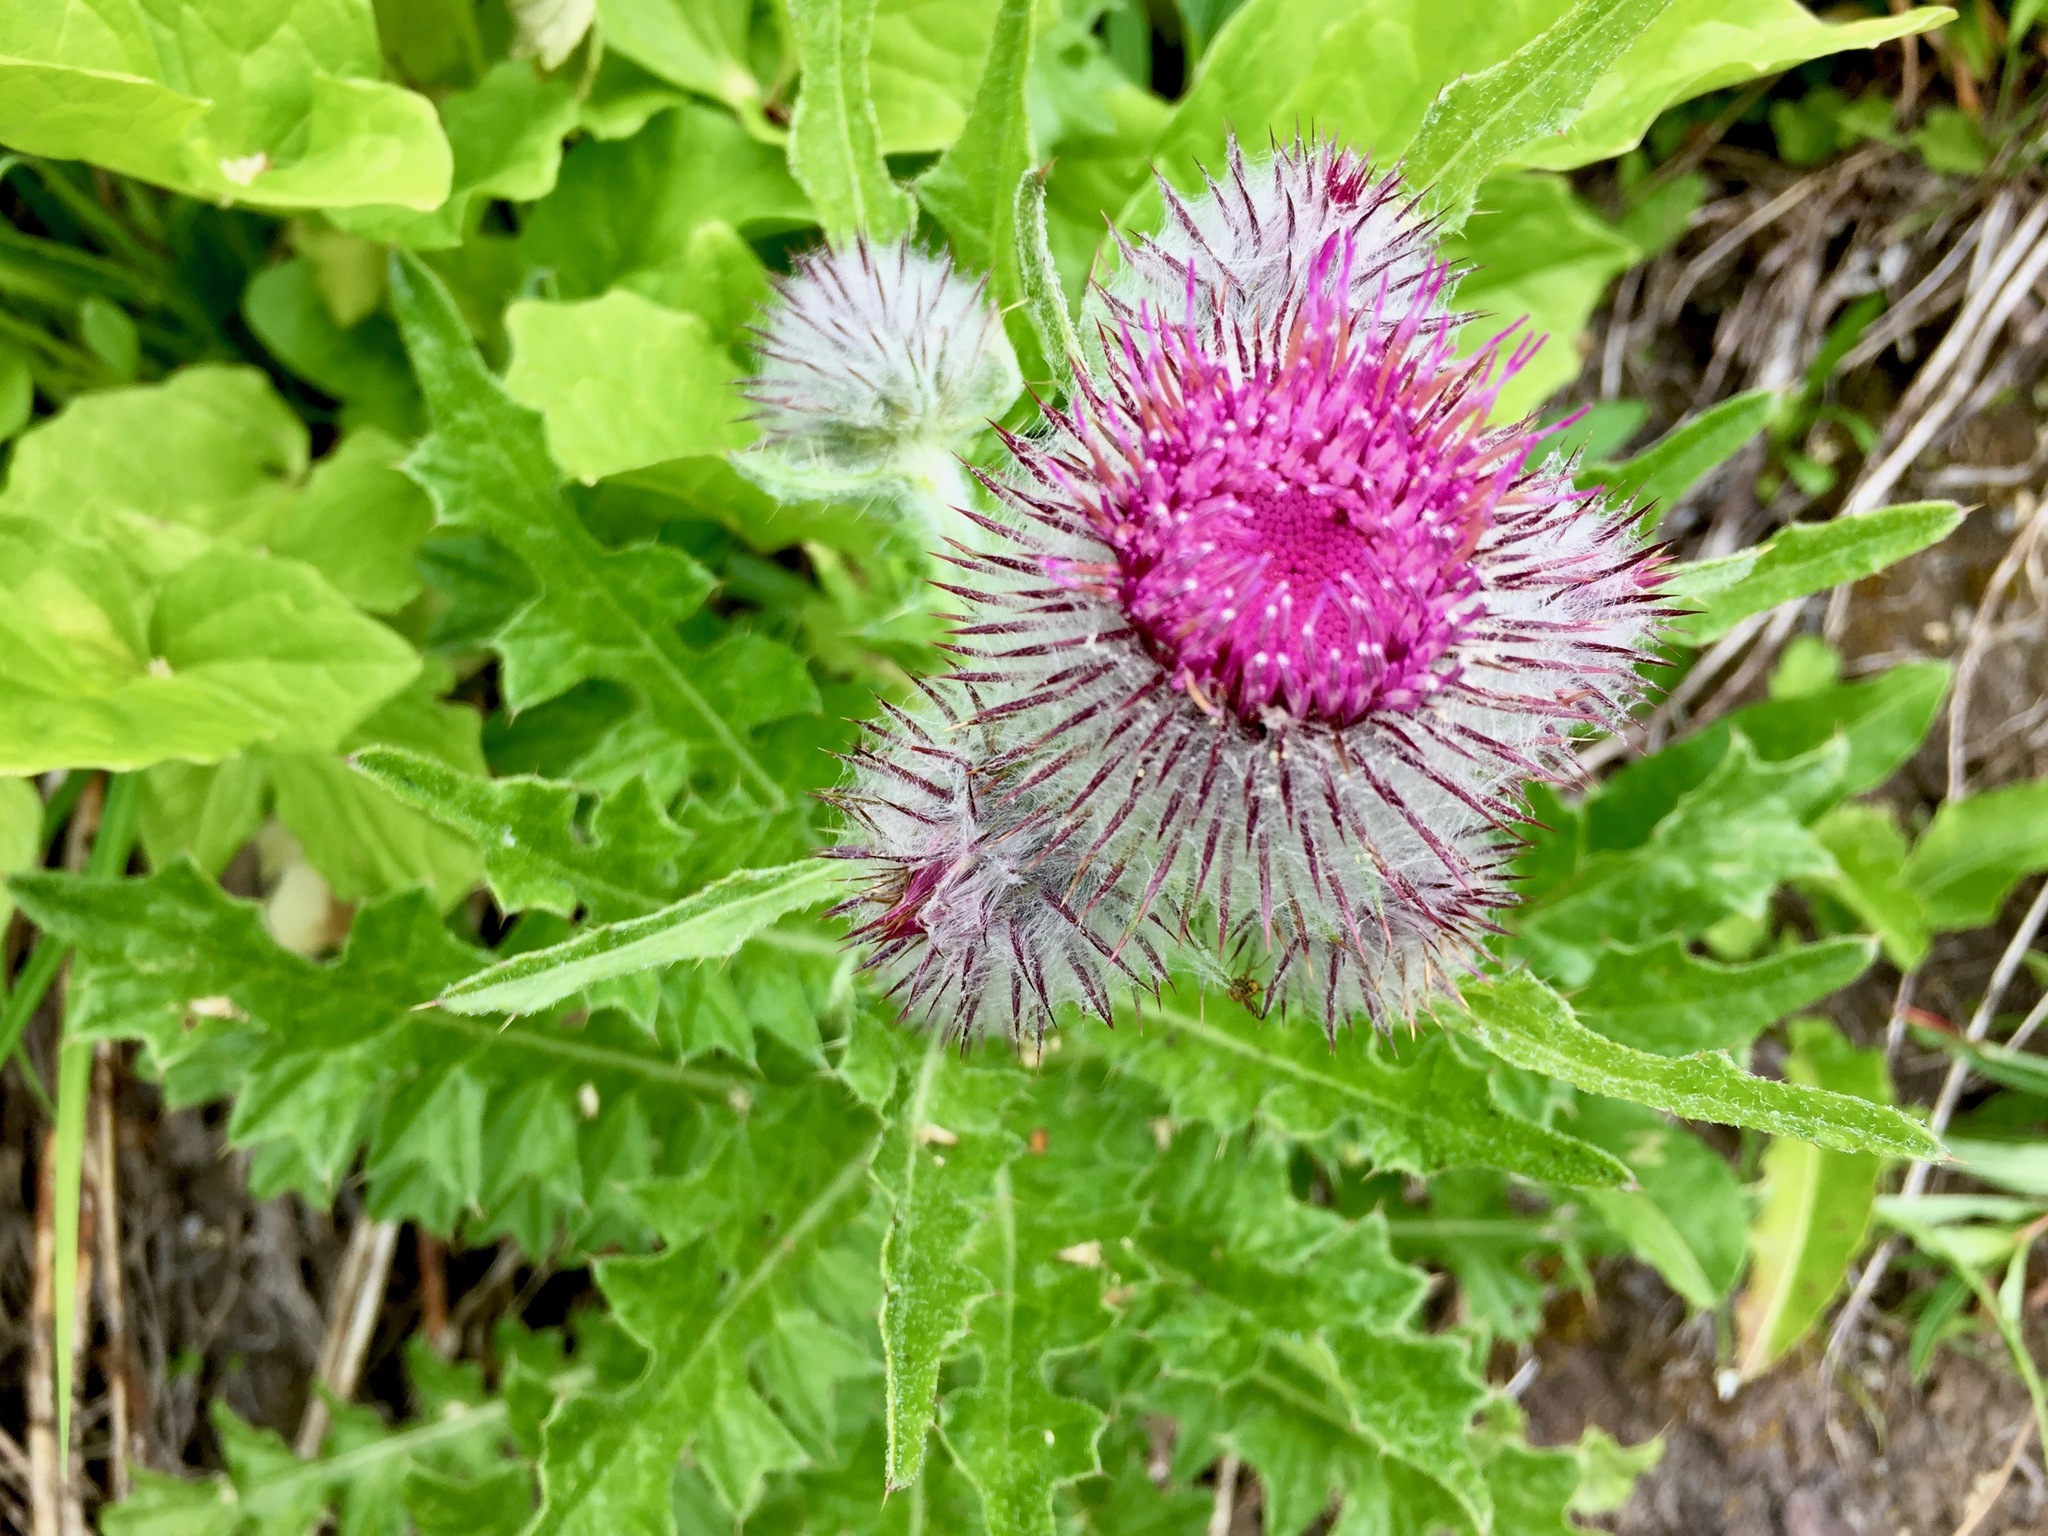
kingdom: Plantae
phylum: Tracheophyta
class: Magnoliopsida
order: Asterales
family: Asteraceae
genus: Cirsium
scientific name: Cirsium edule
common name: Indian thistle
